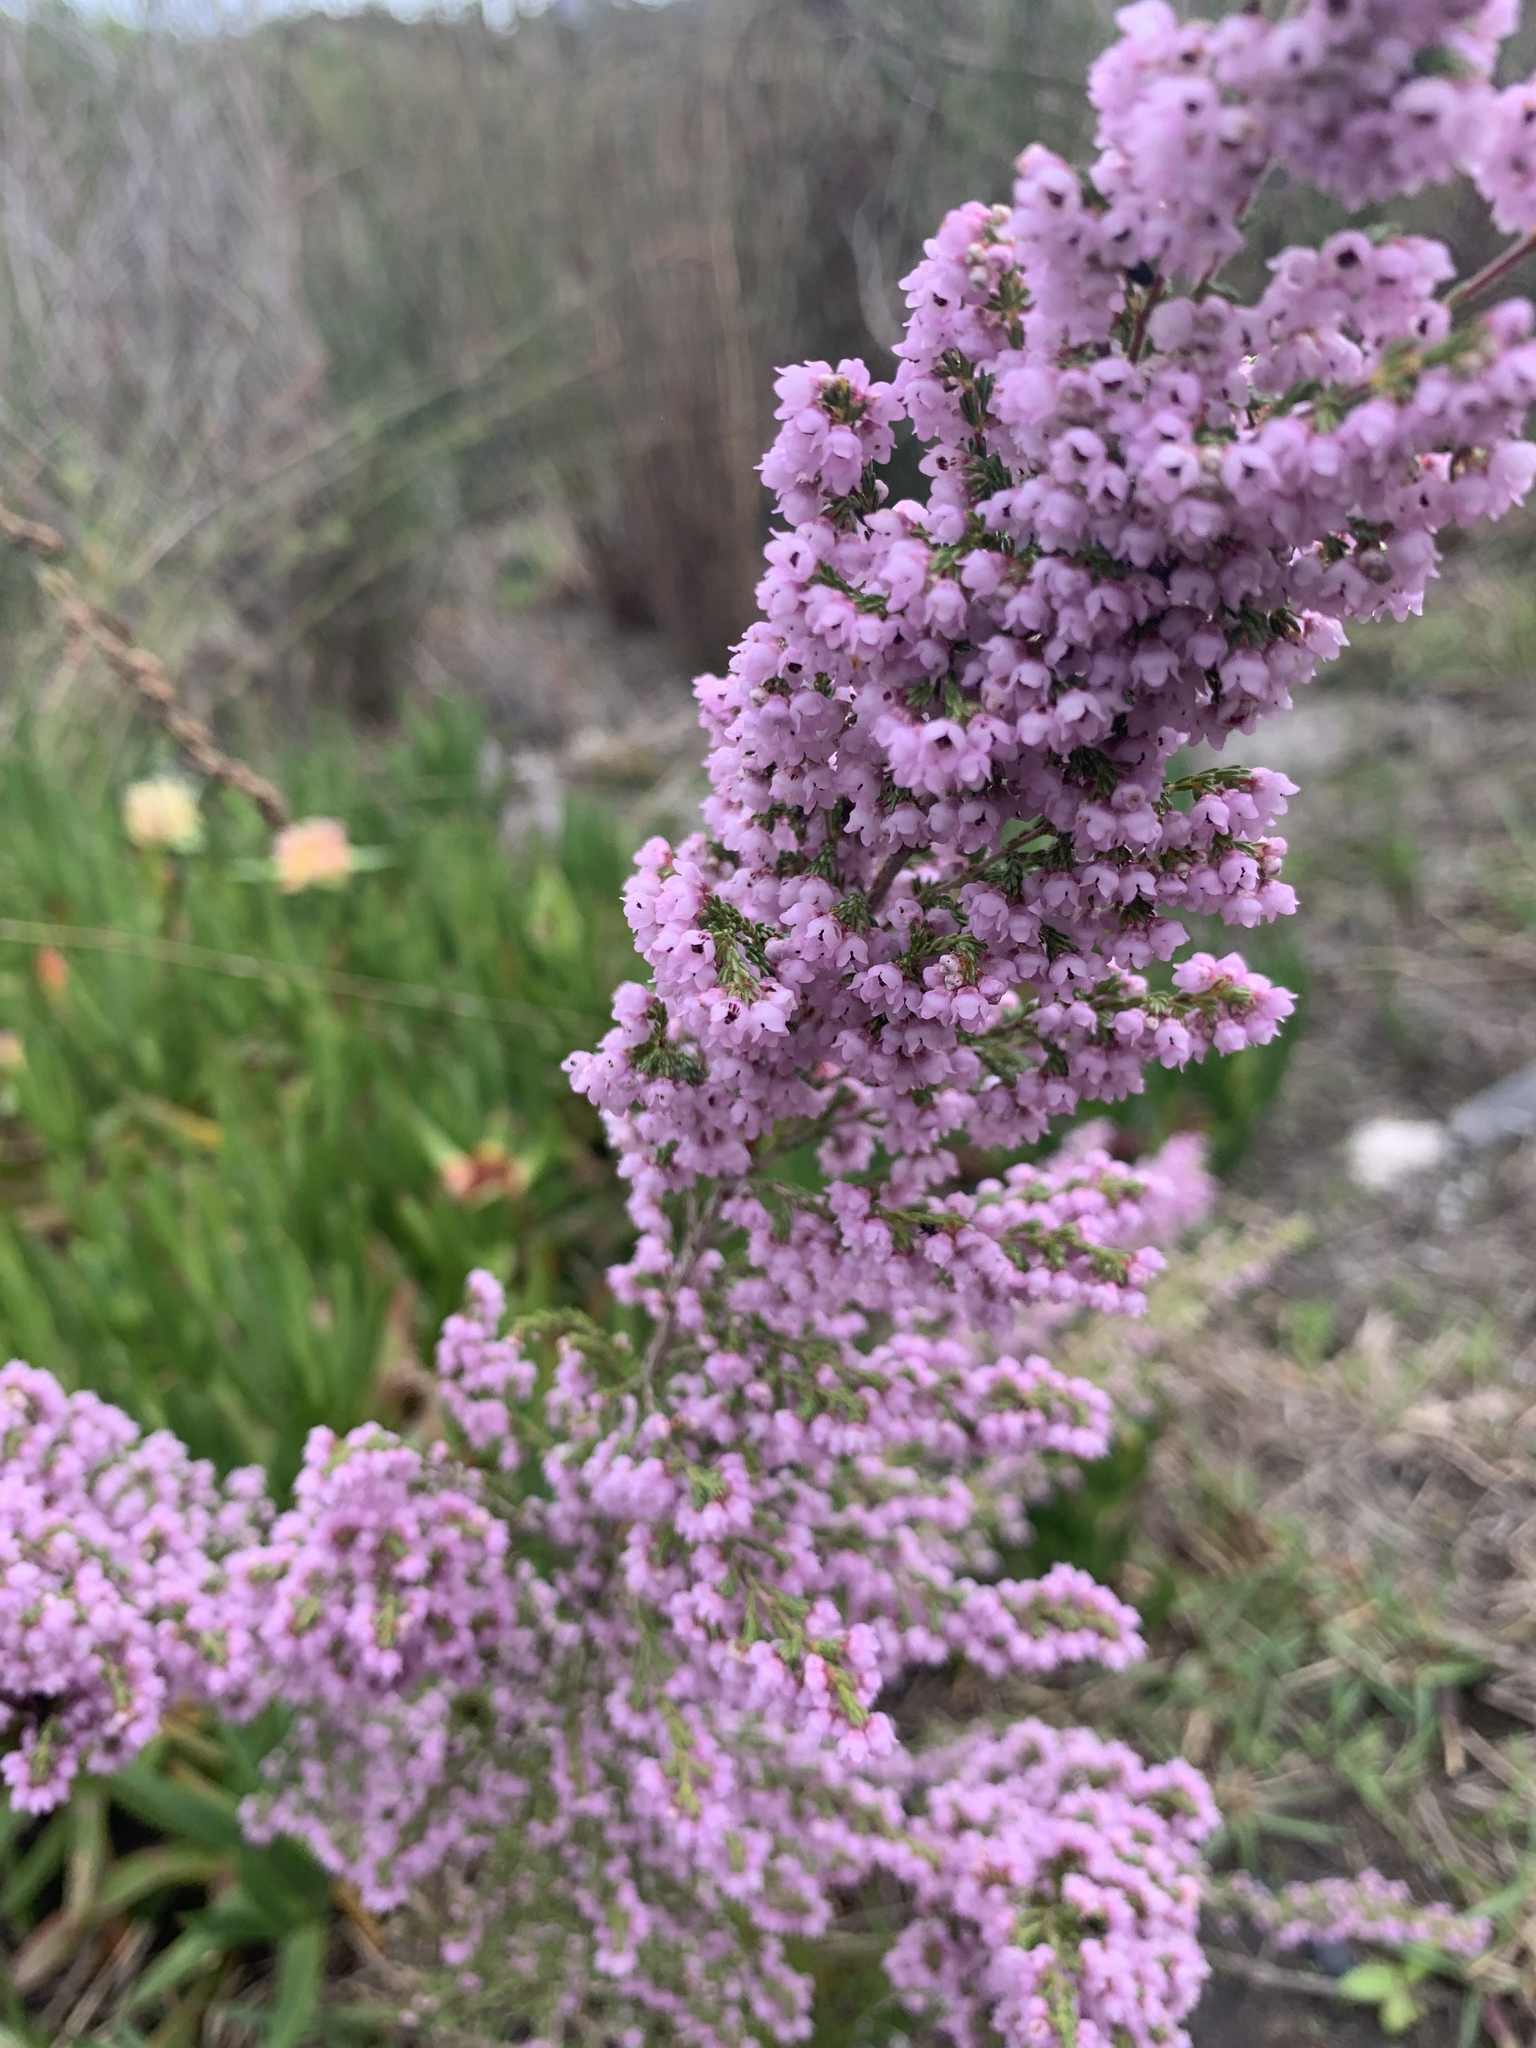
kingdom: Plantae
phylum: Tracheophyta
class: Magnoliopsida
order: Ericales
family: Ericaceae
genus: Erica
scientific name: Erica mauritanica
